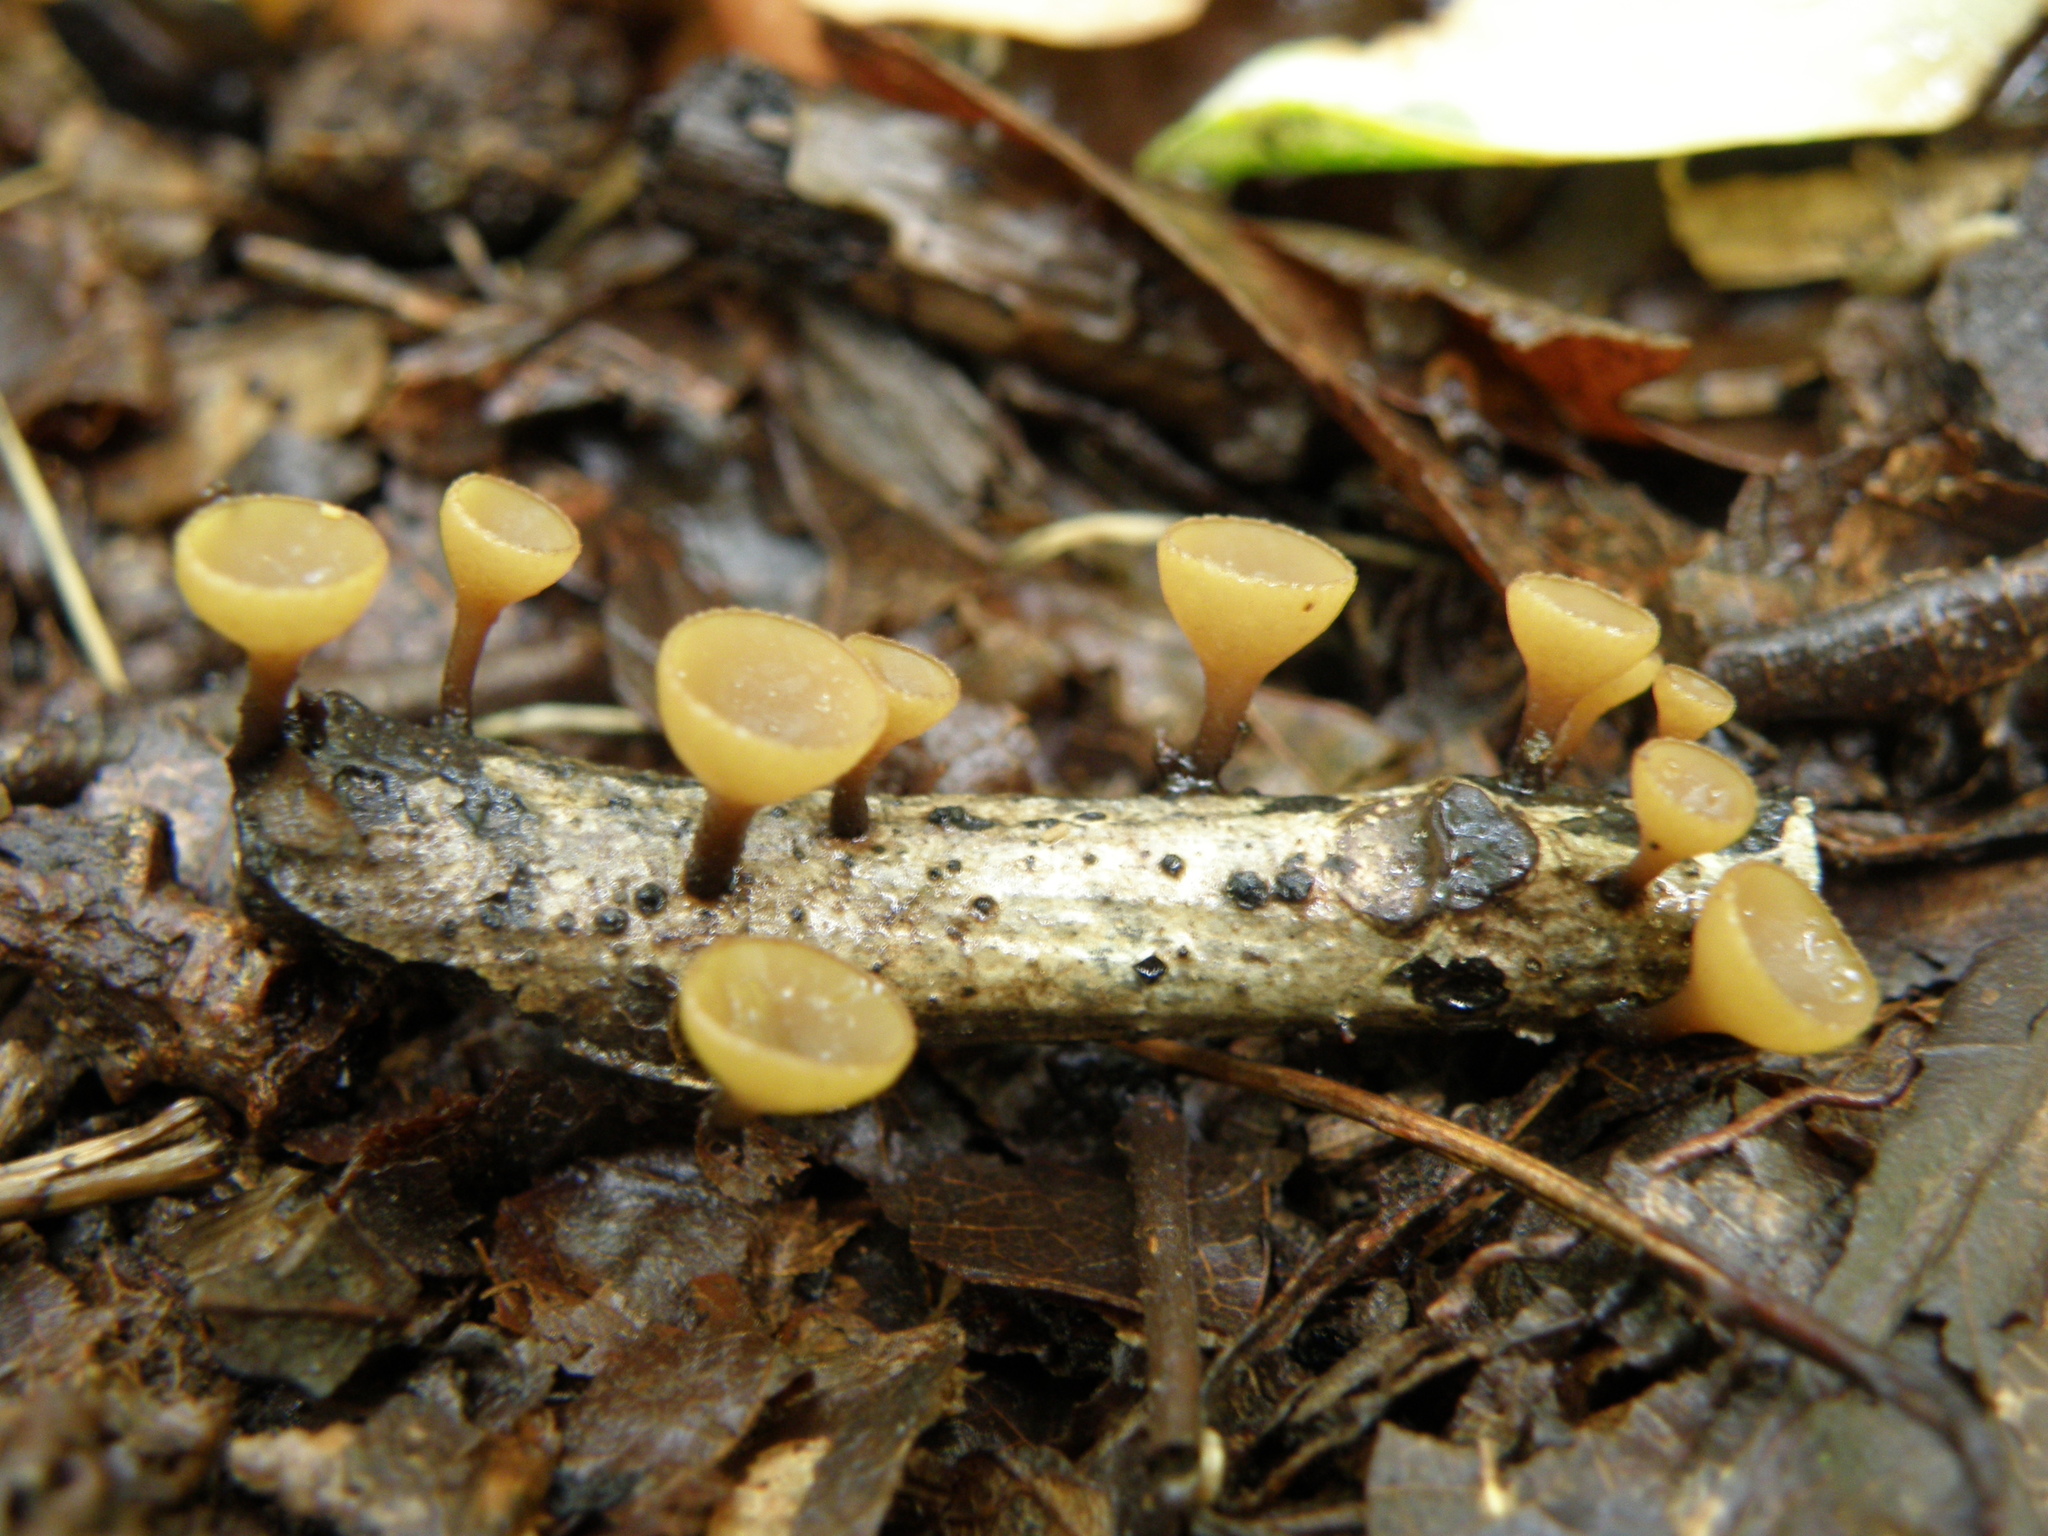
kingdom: Fungi
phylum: Ascomycota
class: Leotiomycetes
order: Helotiales
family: Rutstroemiaceae
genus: Rutstroemia
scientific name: Rutstroemia firma
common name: Brown cup
